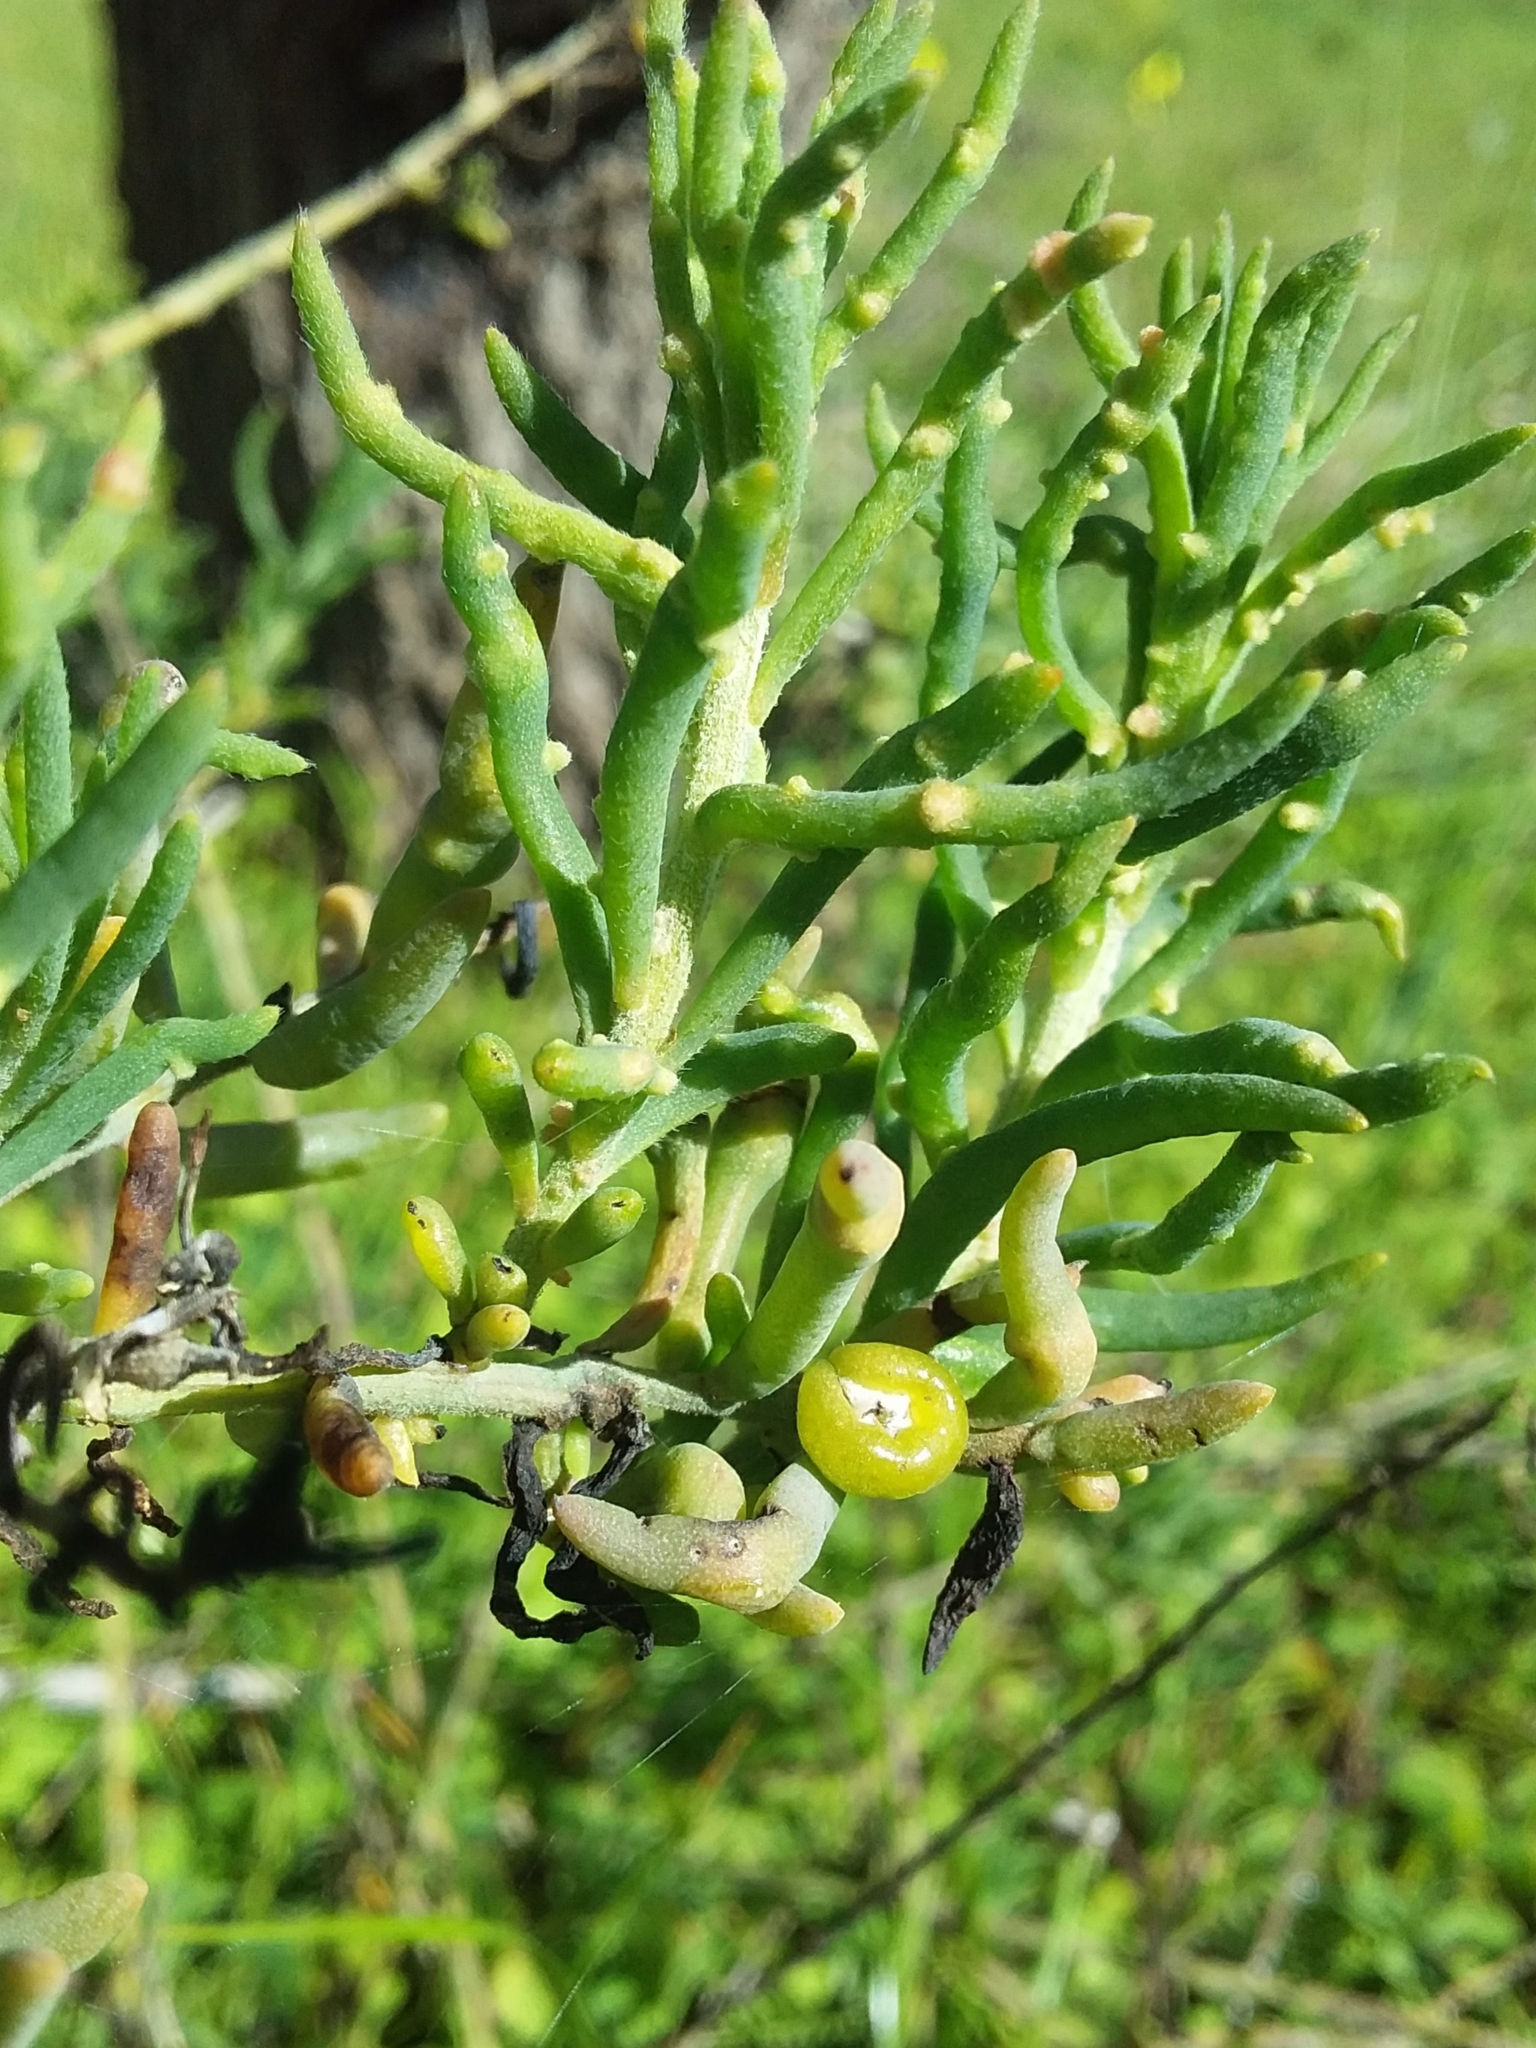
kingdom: Plantae
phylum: Tracheophyta
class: Magnoliopsida
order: Caryophyllales
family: Amaranthaceae
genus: Enchylaena
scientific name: Enchylaena tomentosa
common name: Ruby saltbush
